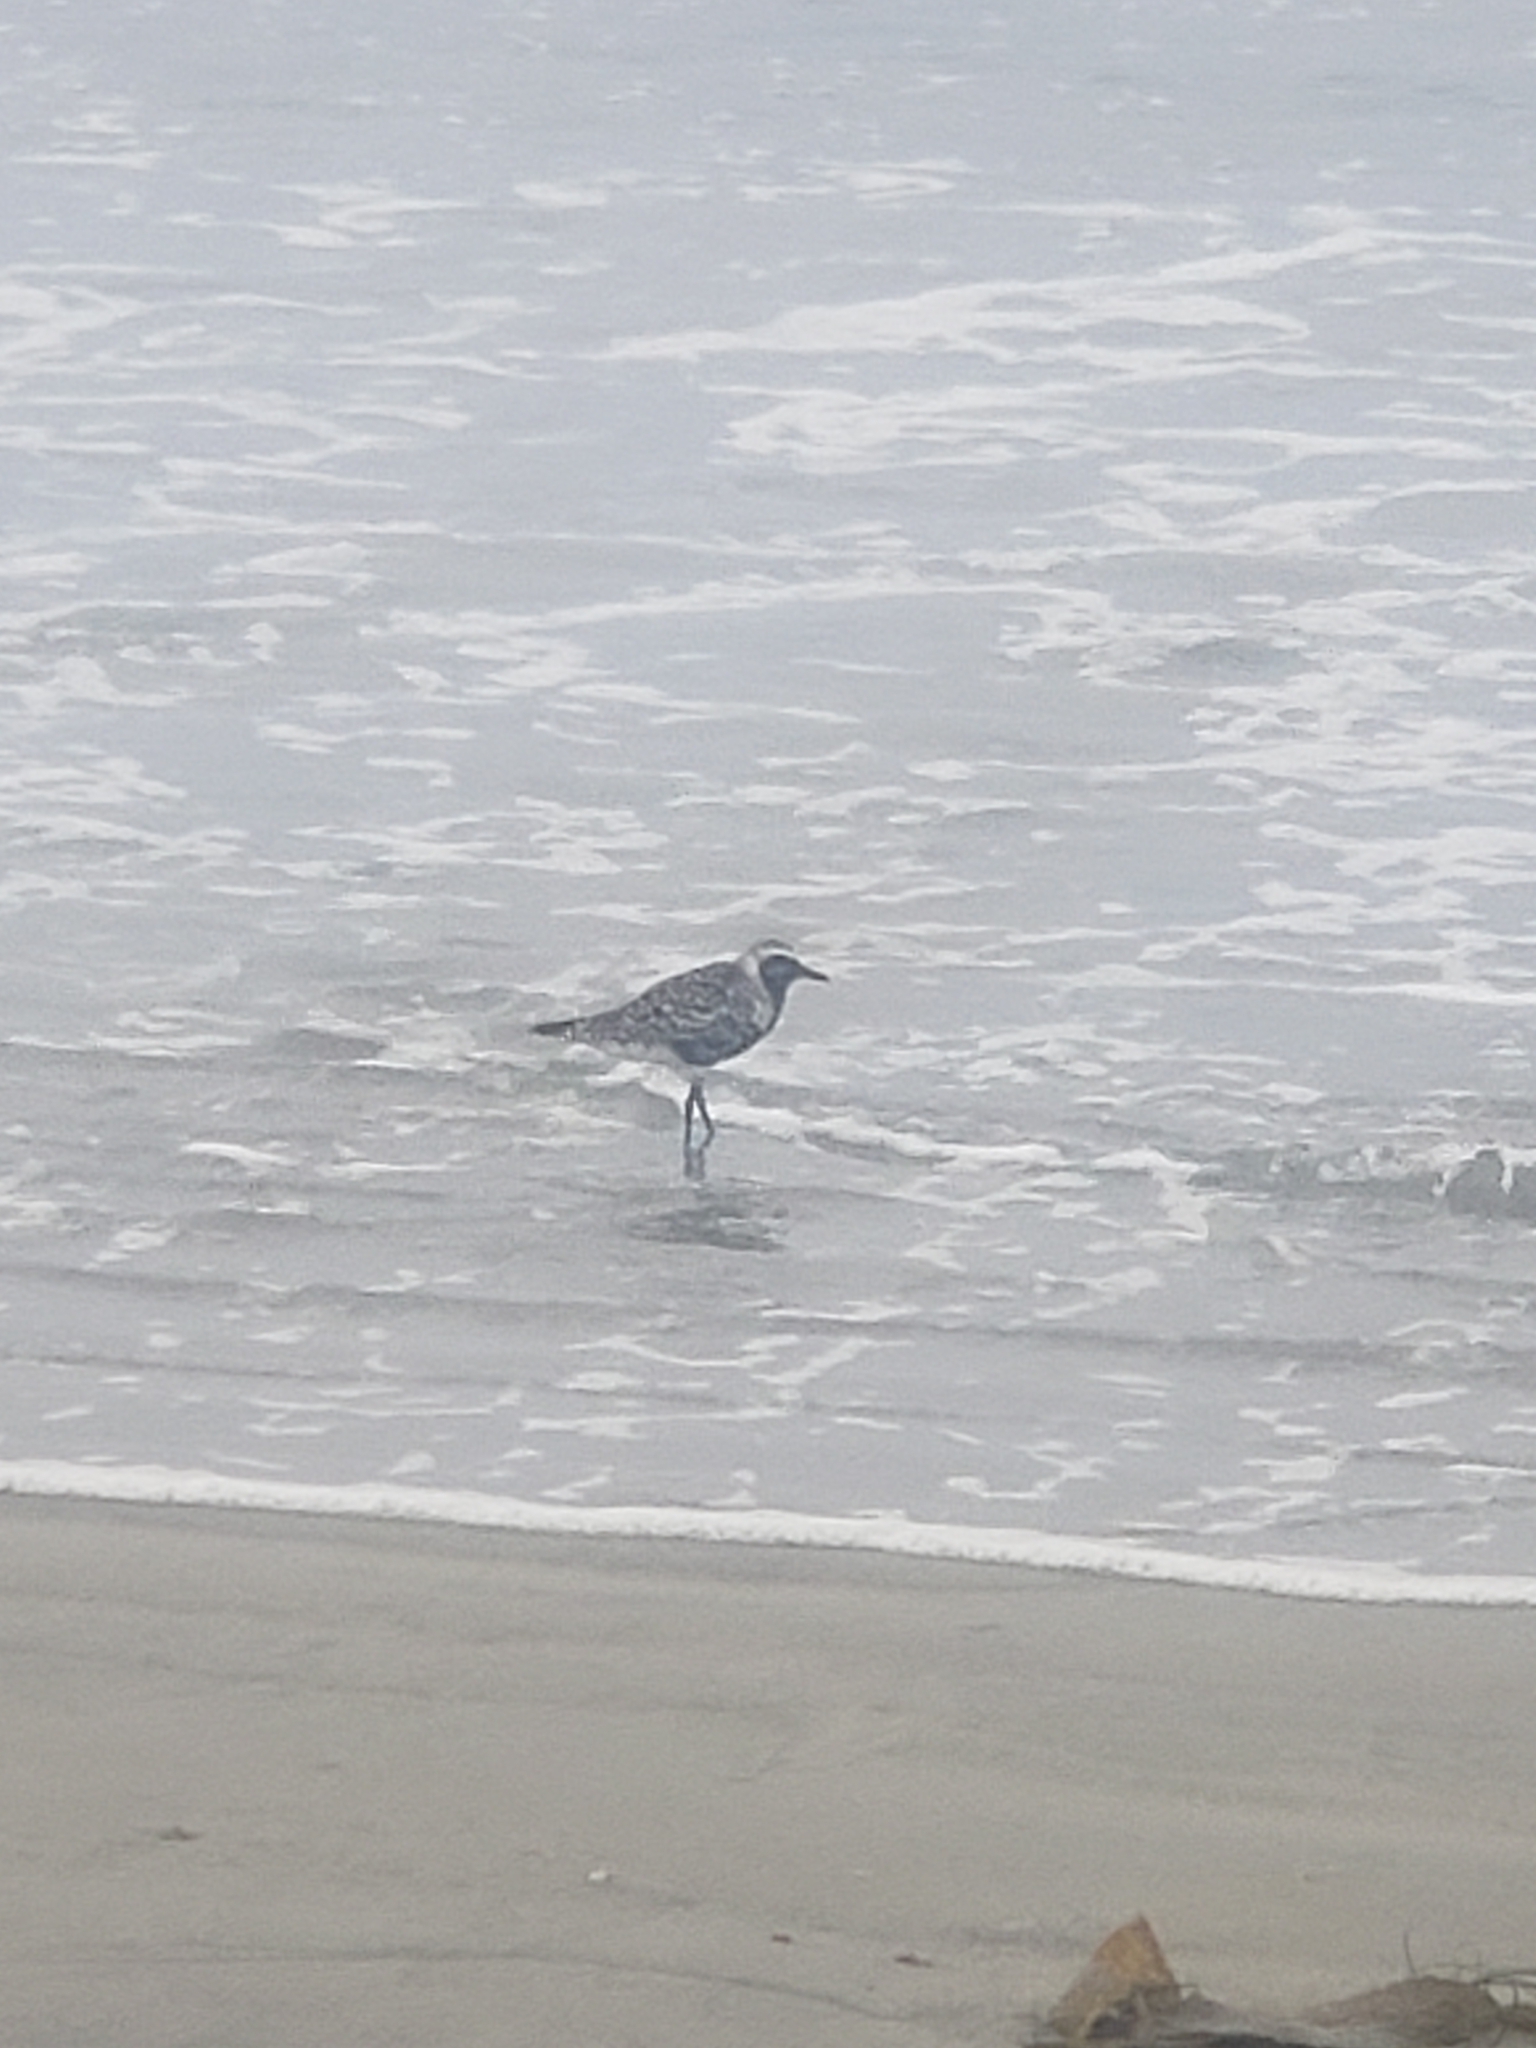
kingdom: Animalia
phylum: Chordata
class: Aves
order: Charadriiformes
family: Charadriidae
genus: Pluvialis
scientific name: Pluvialis squatarola
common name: Grey plover
